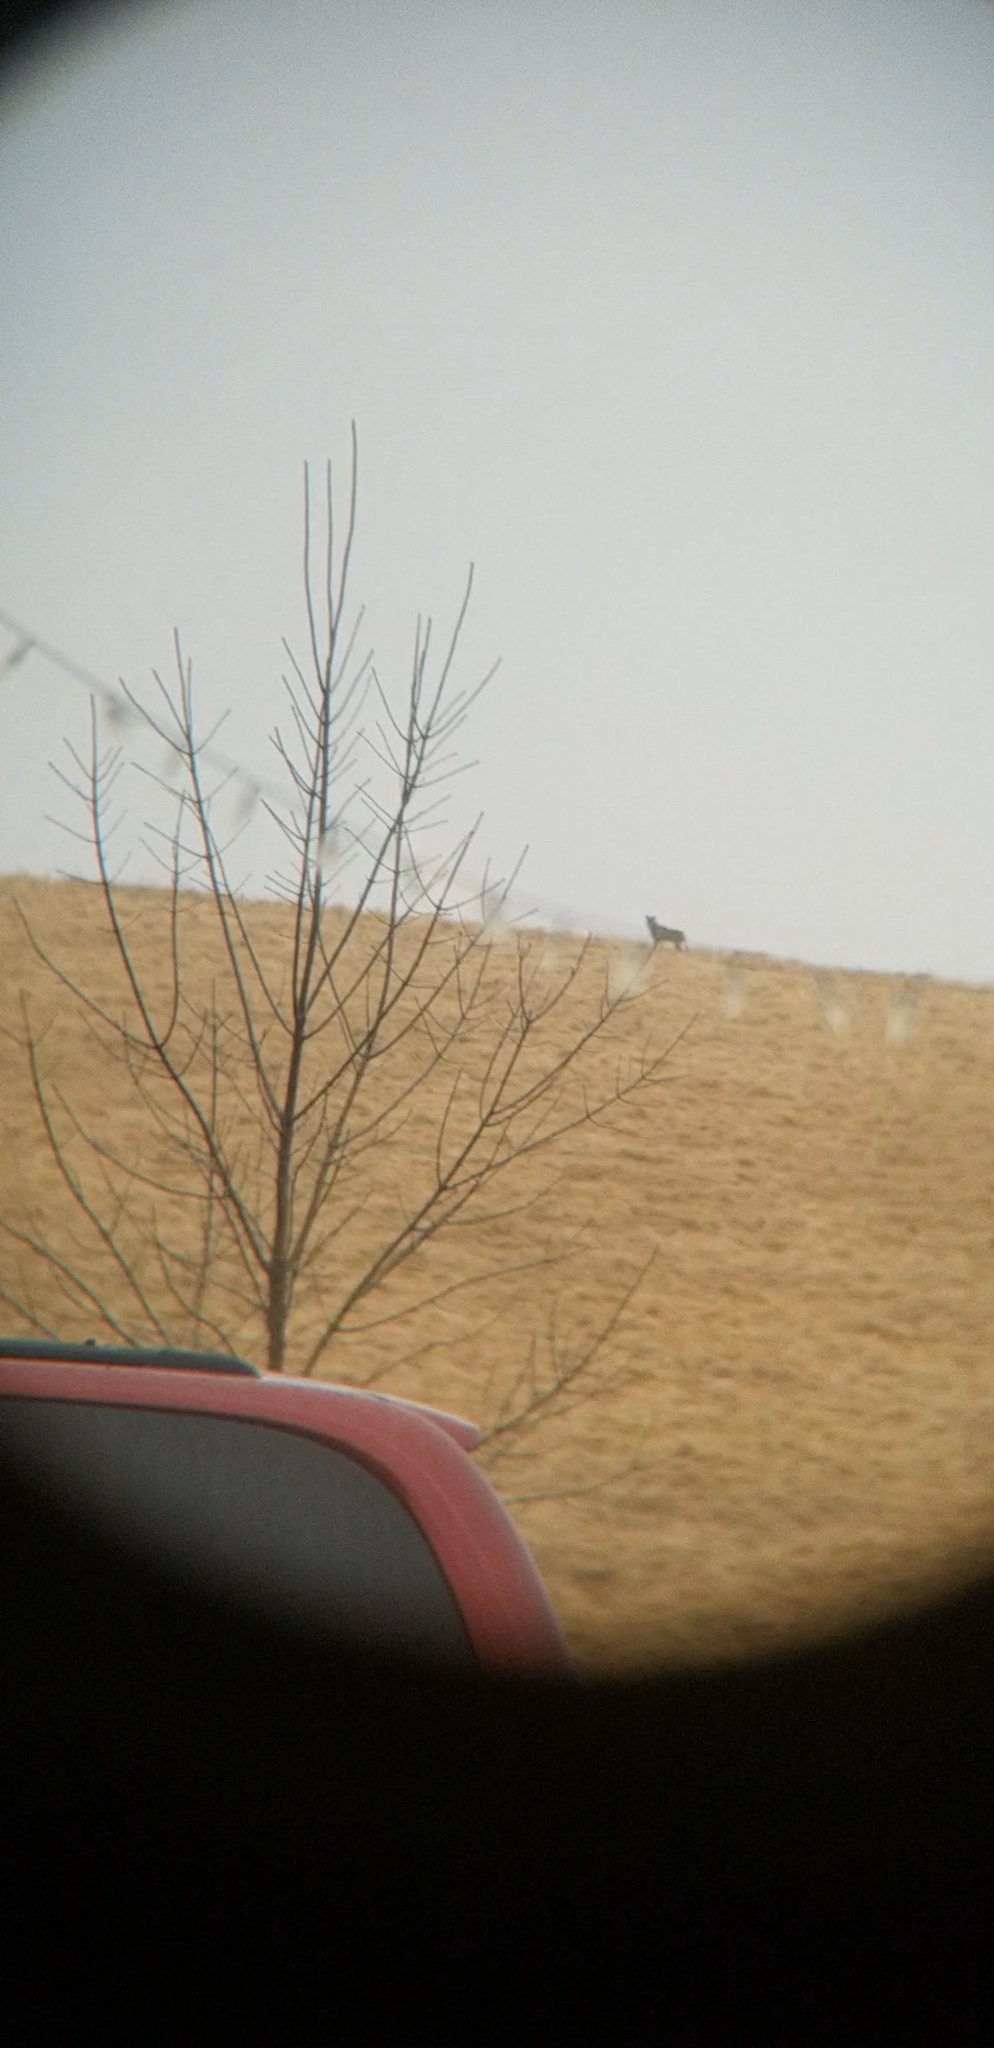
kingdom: Animalia
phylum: Chordata
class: Mammalia
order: Carnivora
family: Canidae
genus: Canis
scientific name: Canis latrans
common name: Coyote
